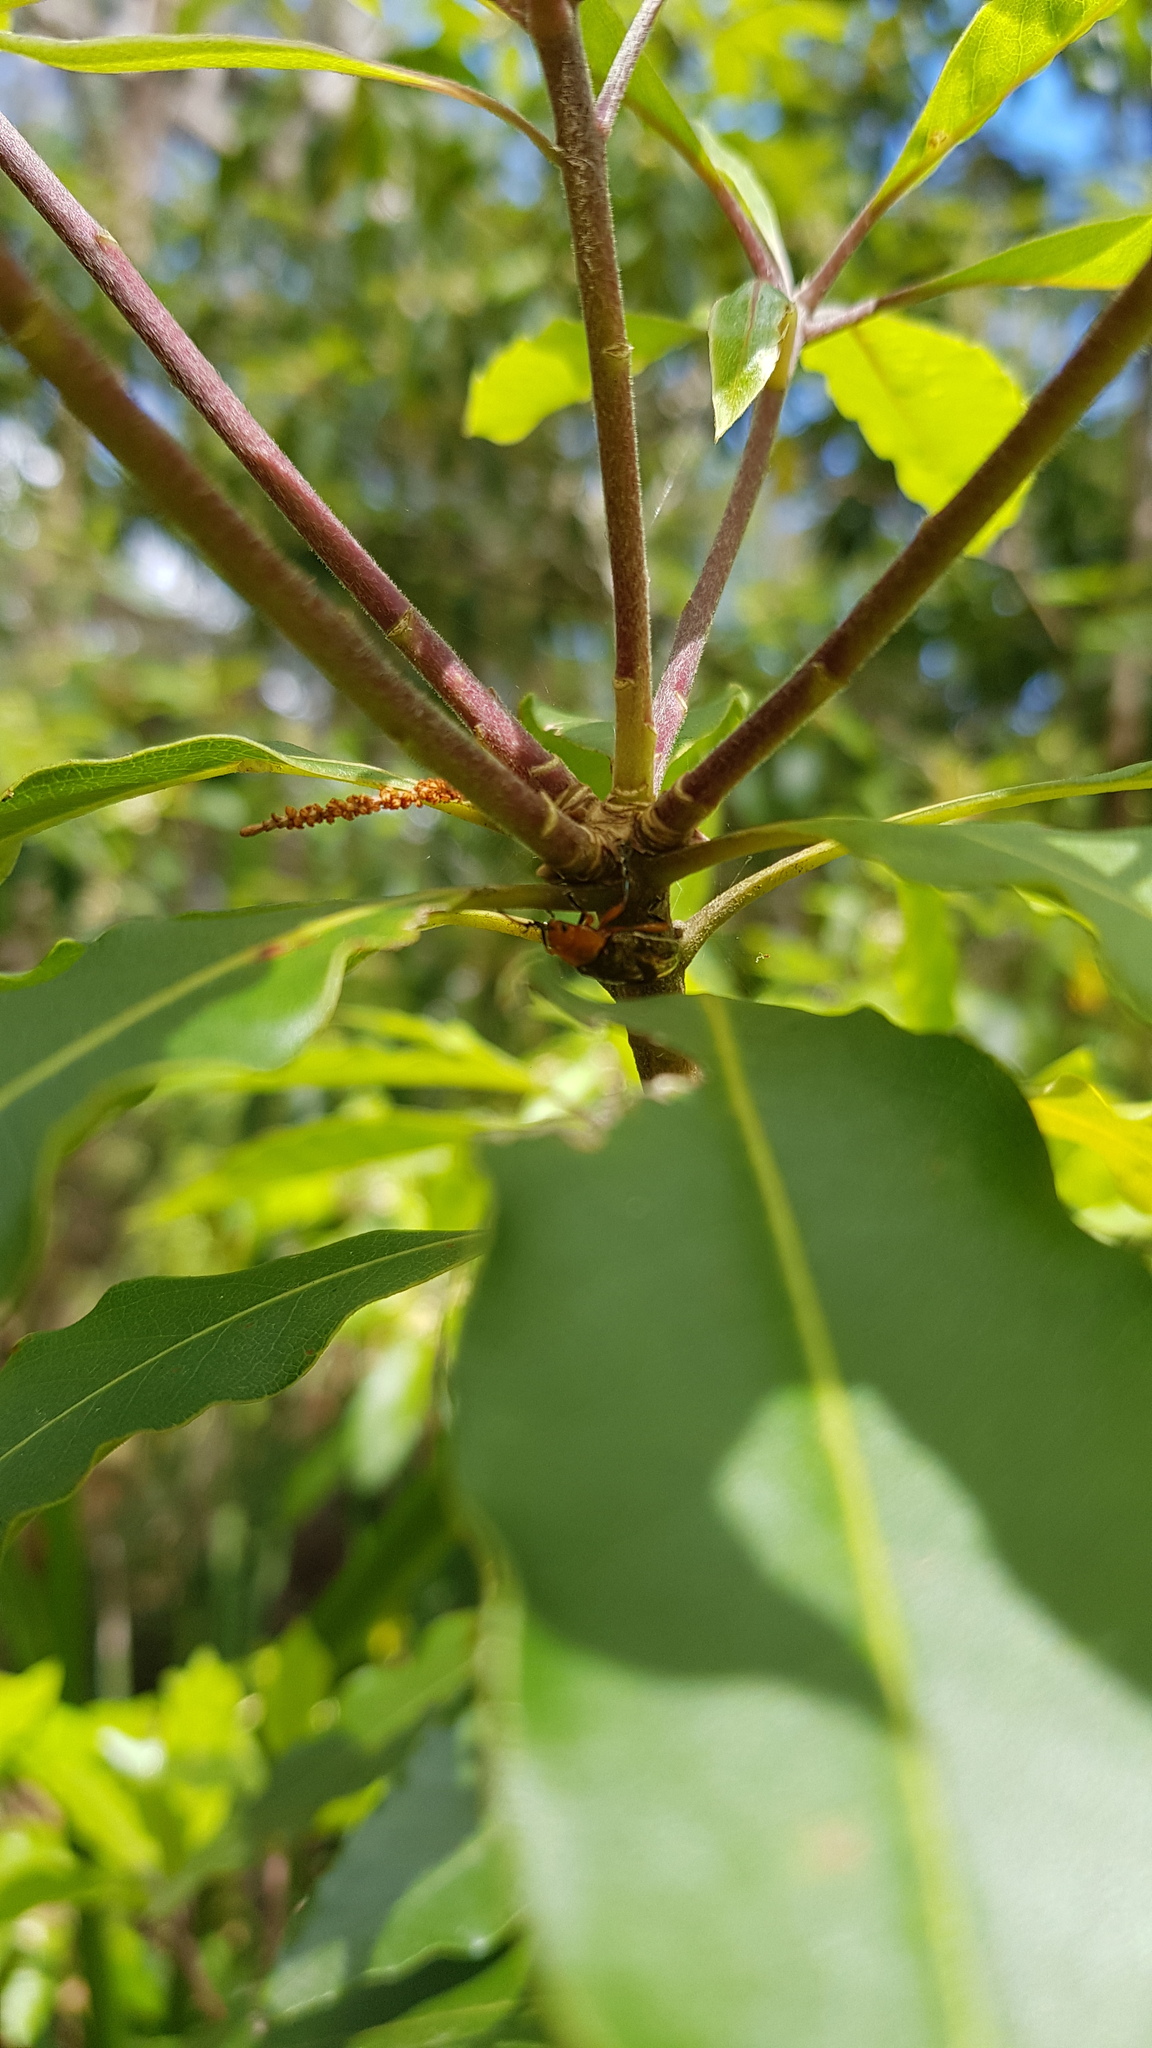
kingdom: Animalia
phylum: Arthropoda
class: Insecta
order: Coleoptera
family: Chrysomelidae
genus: Lamprolina
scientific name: Lamprolina
